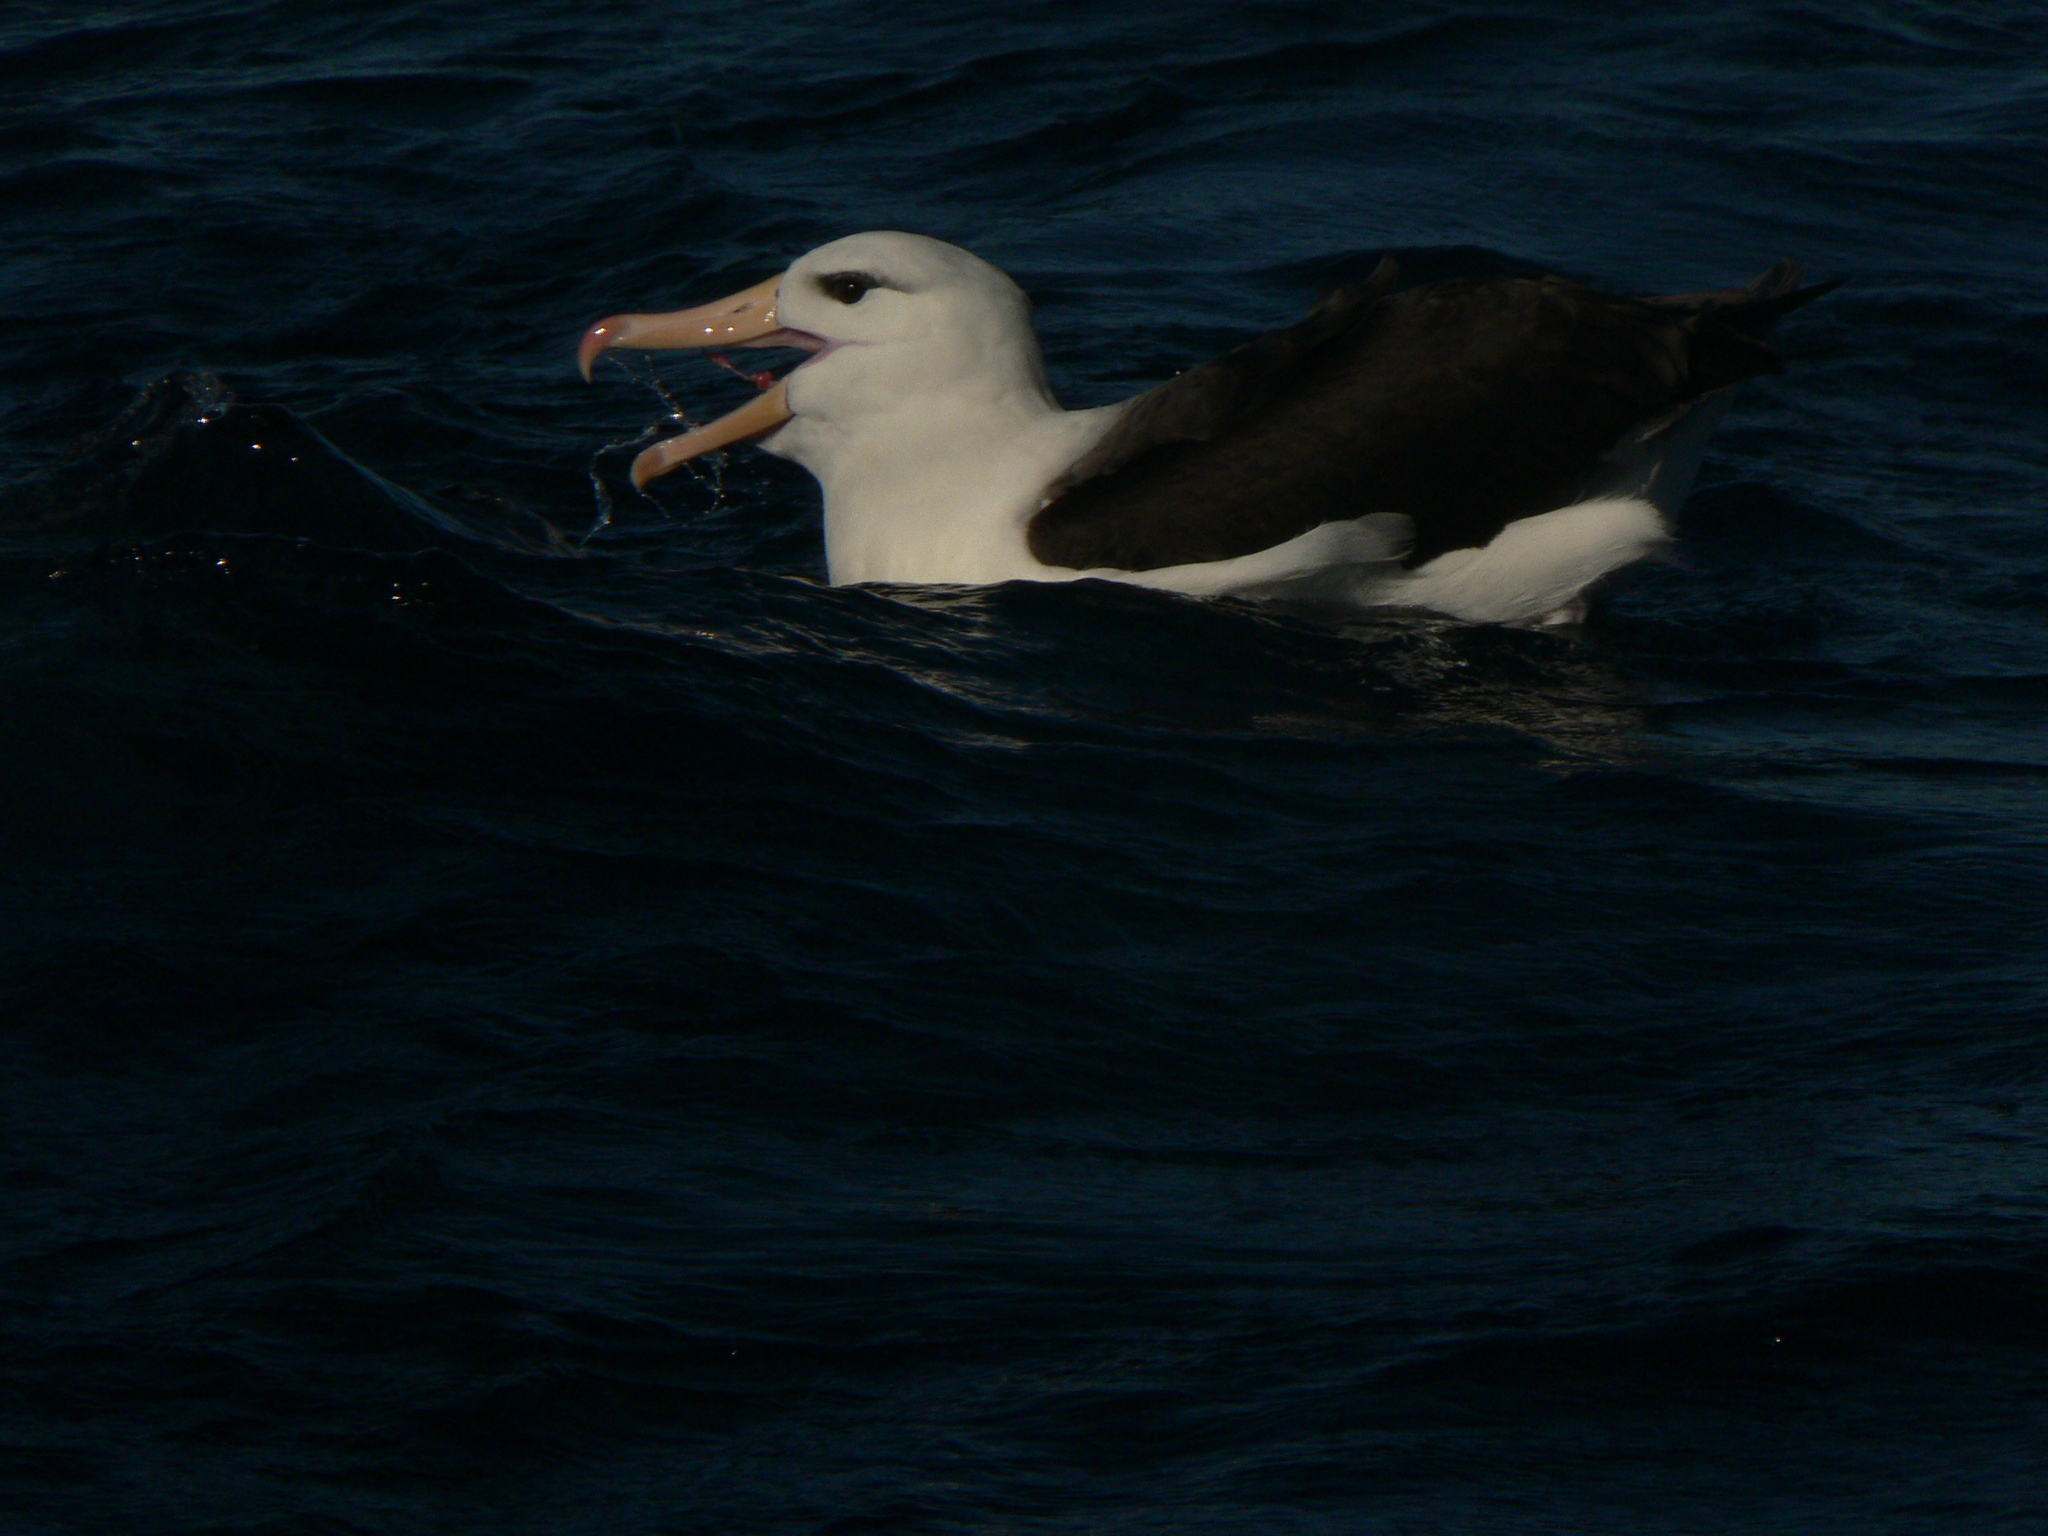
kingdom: Animalia
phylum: Chordata
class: Aves
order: Procellariiformes
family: Diomedeidae
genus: Thalassarche
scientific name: Thalassarche melanophris
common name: Black-browed albatross
